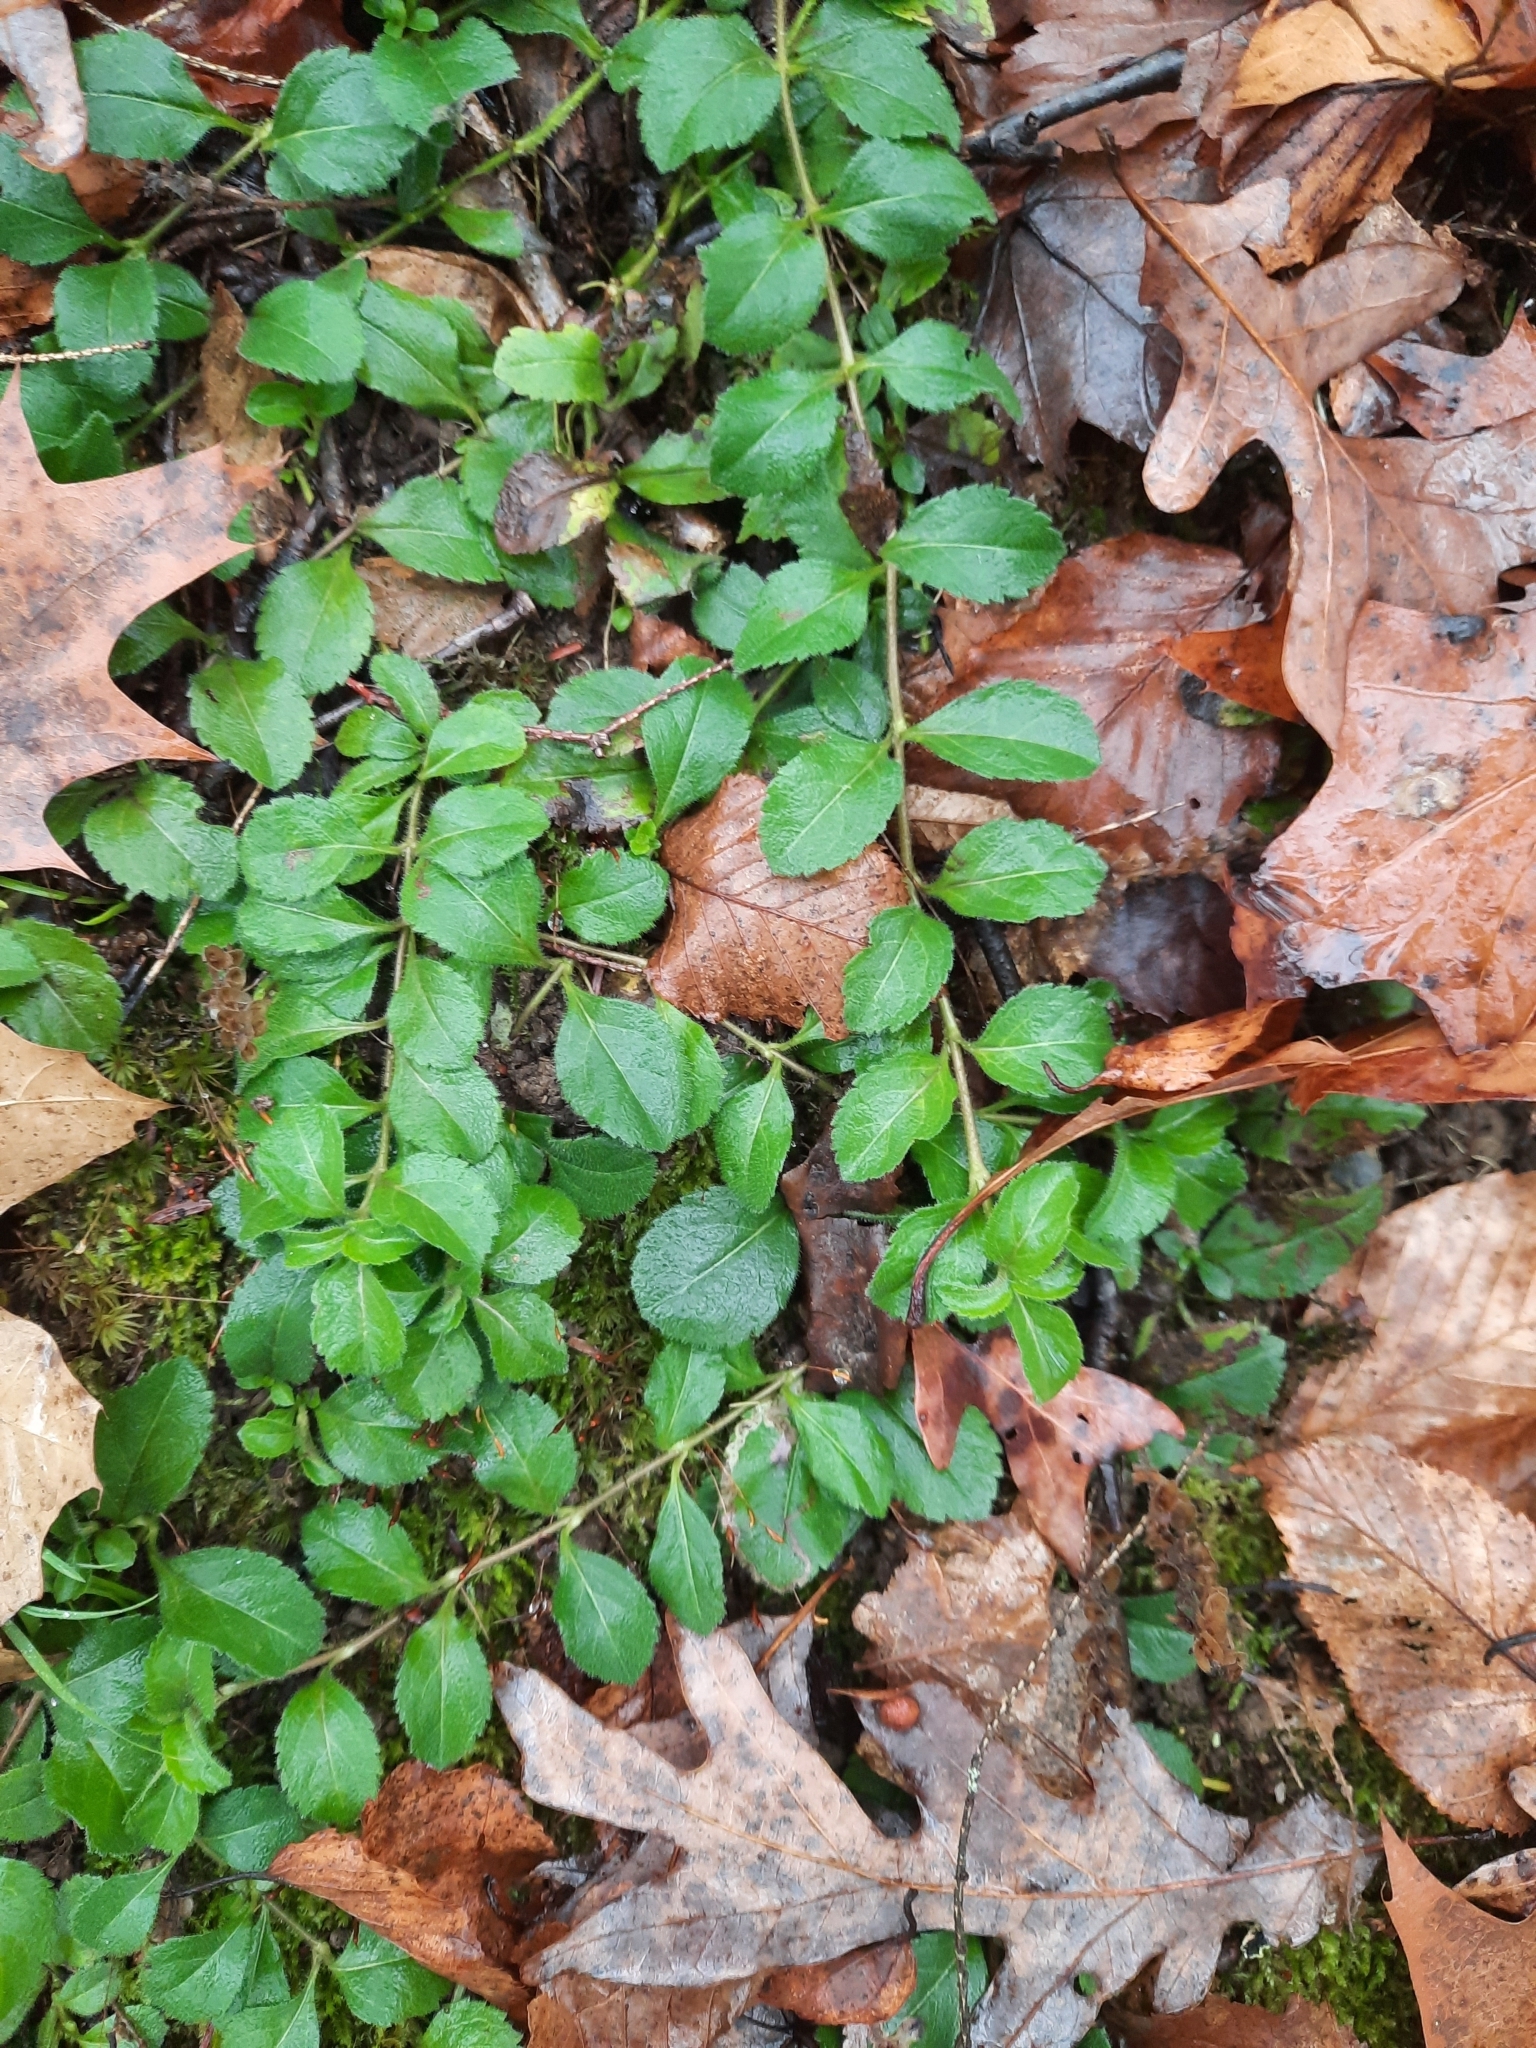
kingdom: Plantae
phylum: Tracheophyta
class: Magnoliopsida
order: Lamiales
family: Plantaginaceae
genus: Veronica
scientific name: Veronica officinalis
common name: Common speedwell
